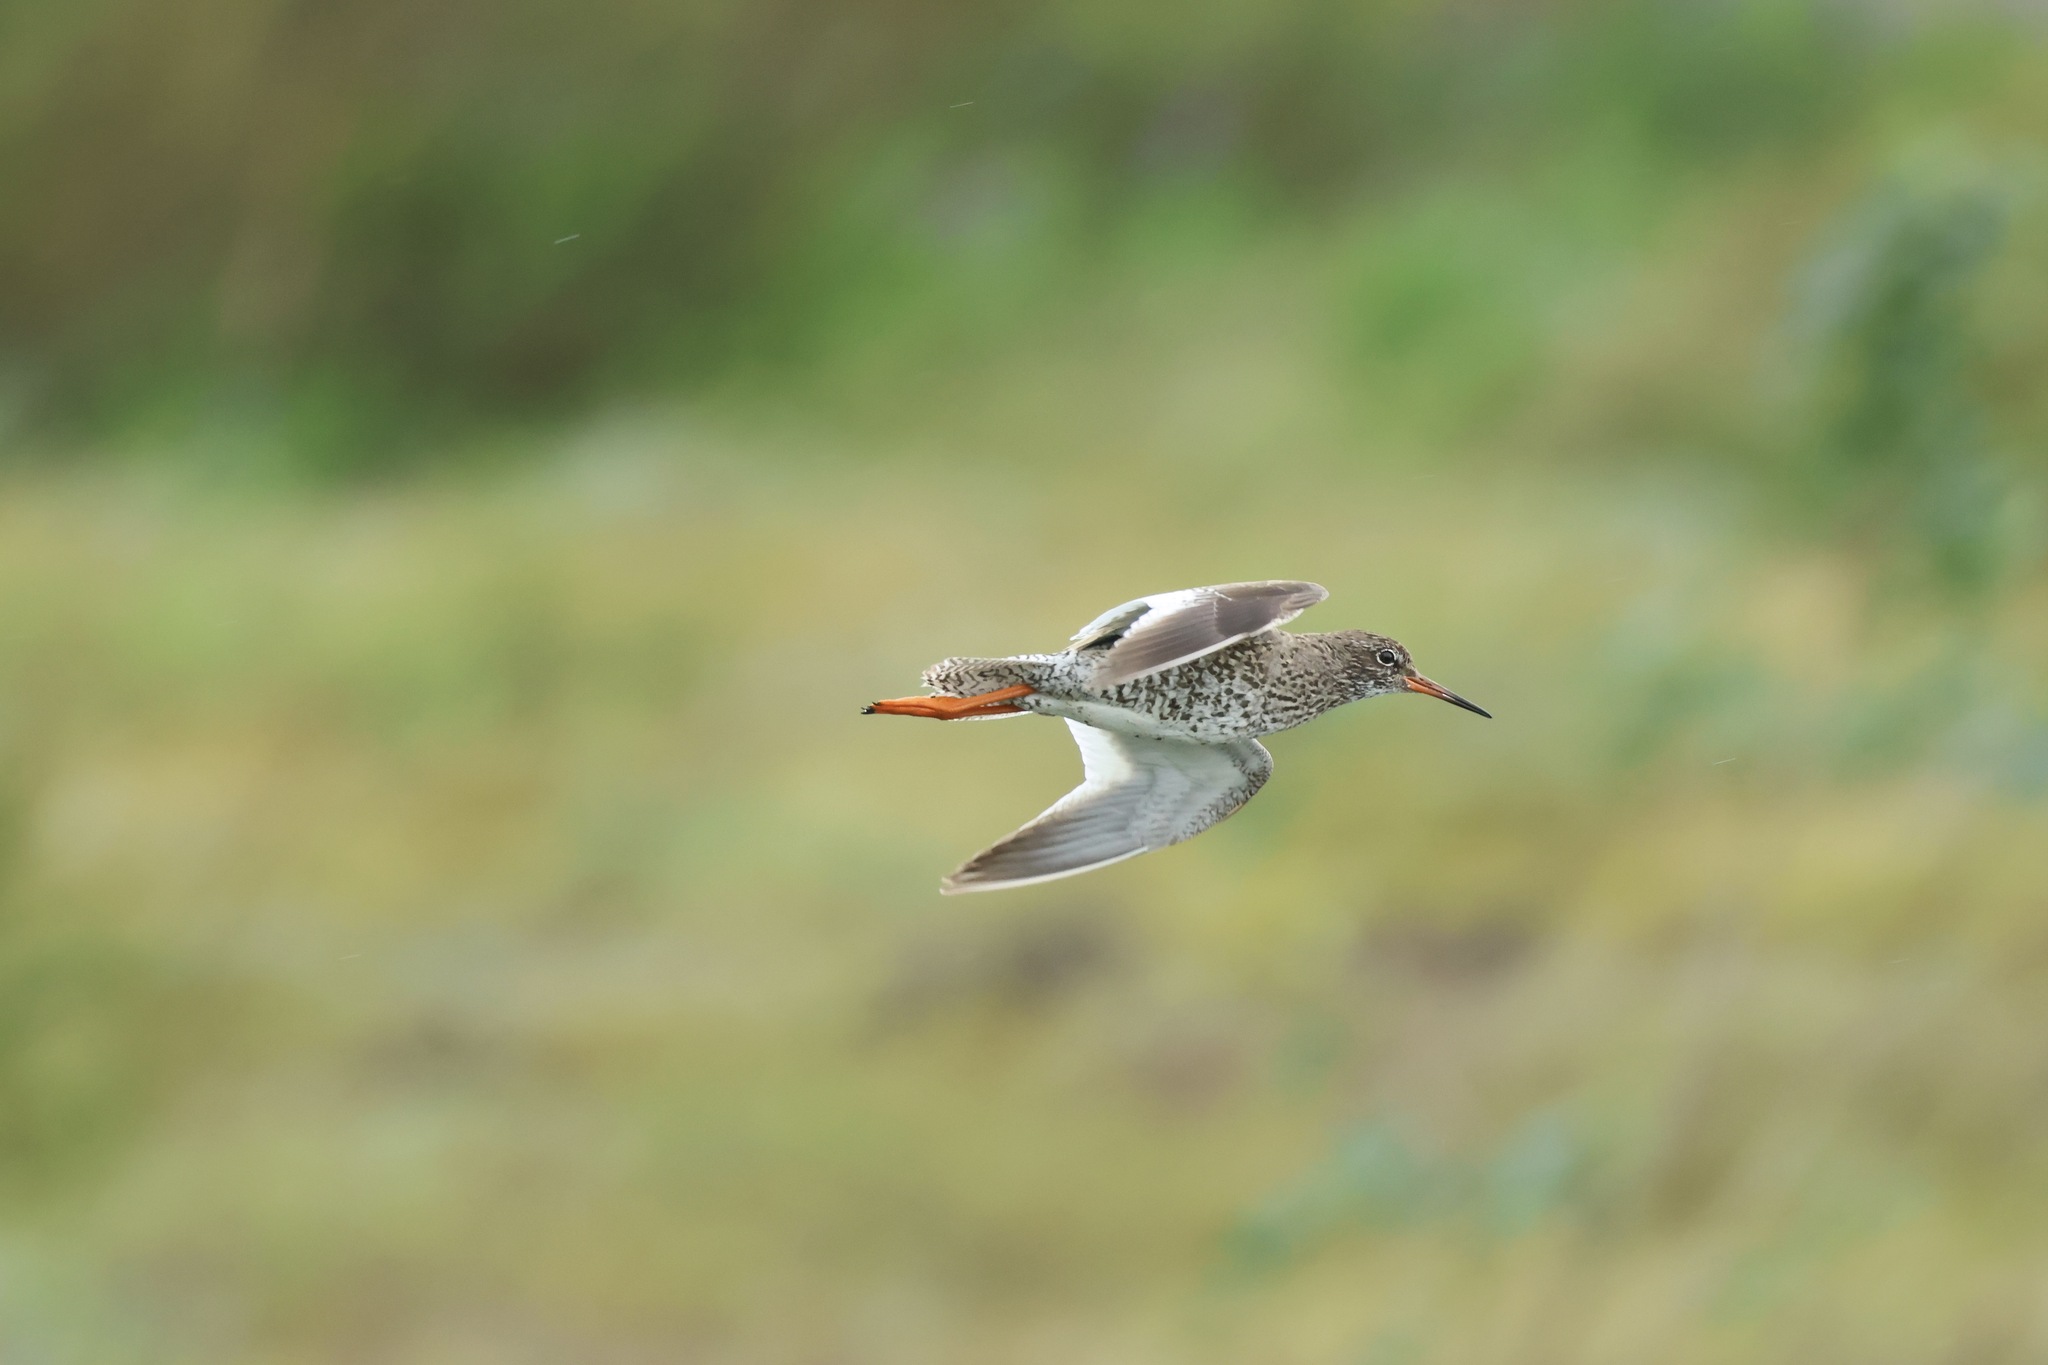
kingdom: Animalia
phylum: Chordata
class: Aves
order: Charadriiformes
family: Scolopacidae
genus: Tringa
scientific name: Tringa totanus
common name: Common redshank
